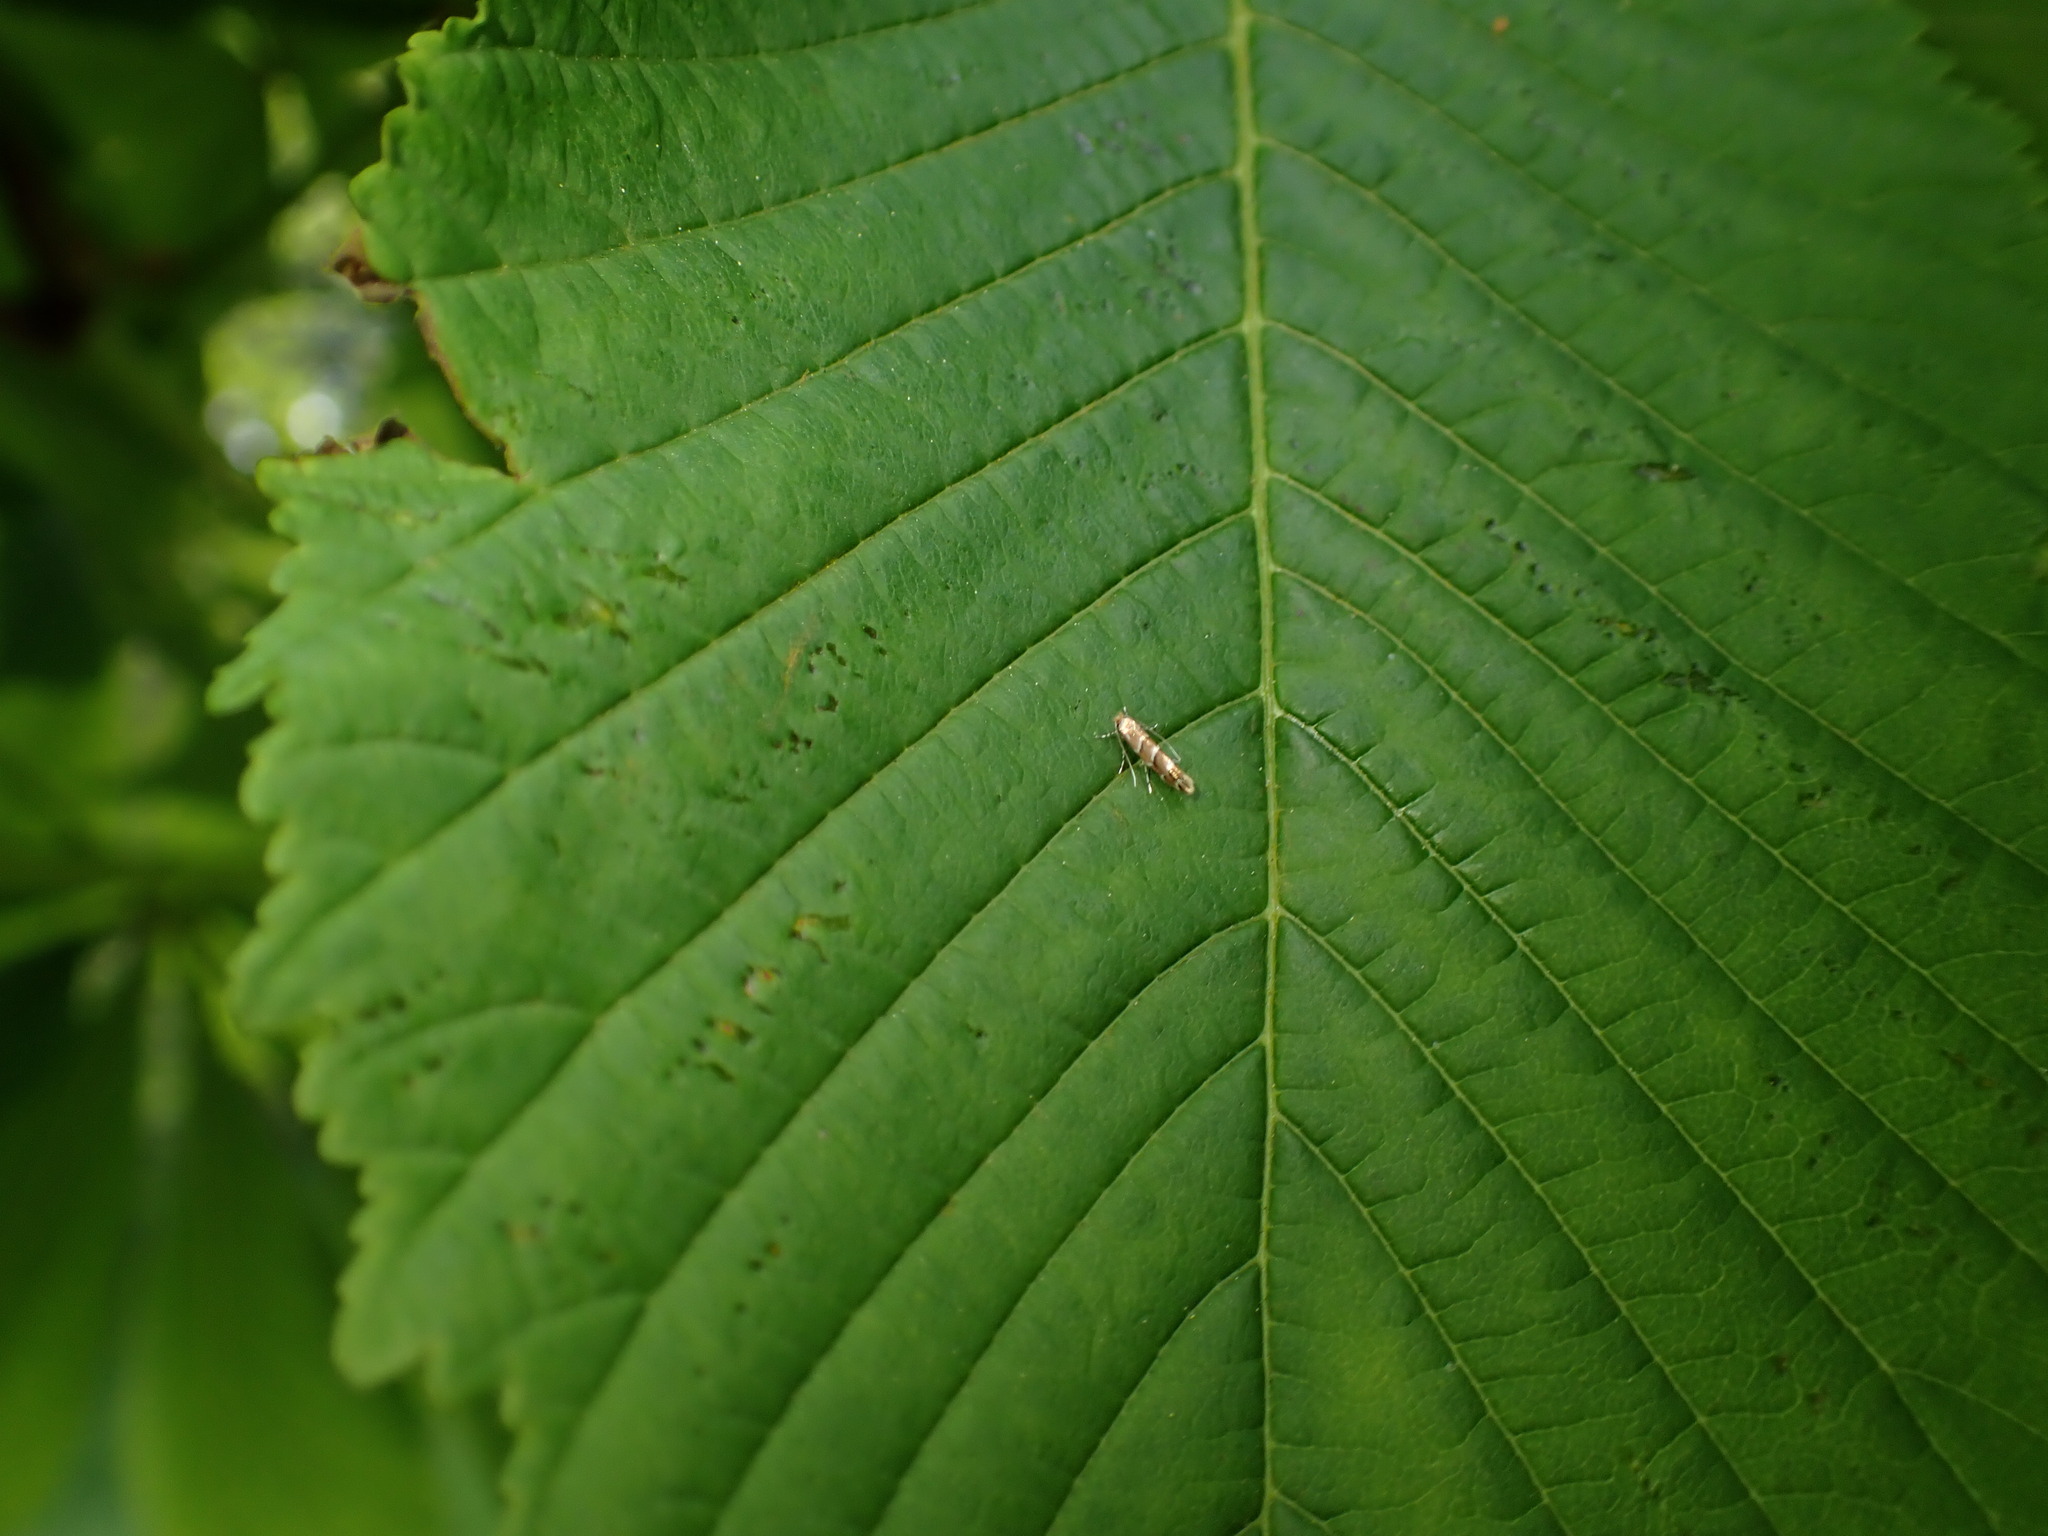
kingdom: Animalia
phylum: Arthropoda
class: Insecta
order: Lepidoptera
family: Gracillariidae
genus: Cameraria
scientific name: Cameraria ohridella
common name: Horse-chestnut leaf-miner
